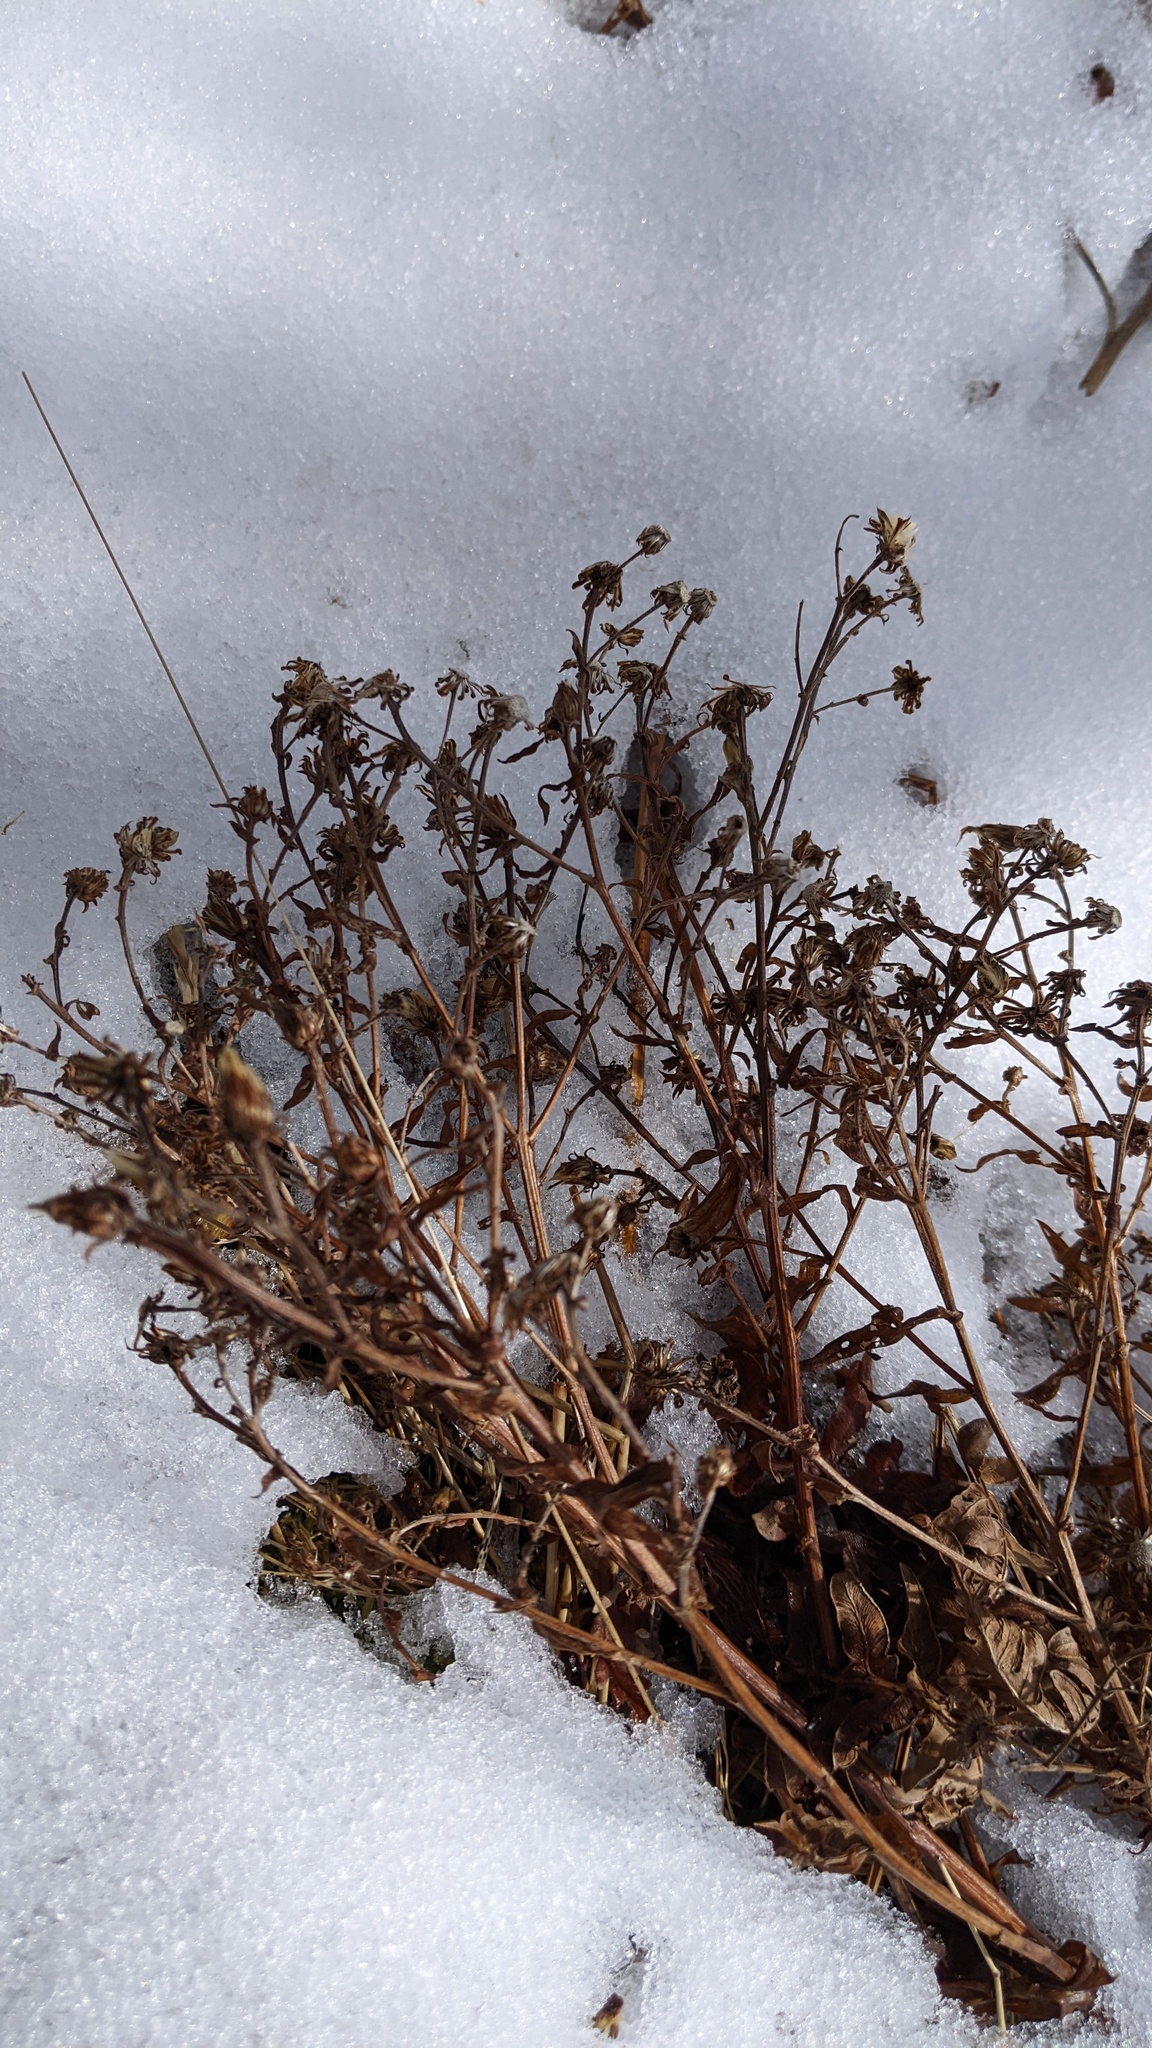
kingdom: Plantae
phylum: Tracheophyta
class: Magnoliopsida
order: Asterales
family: Asteraceae
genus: Symphyotrichum
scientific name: Symphyotrichum novi-belgii
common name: Michaelmas daisy
